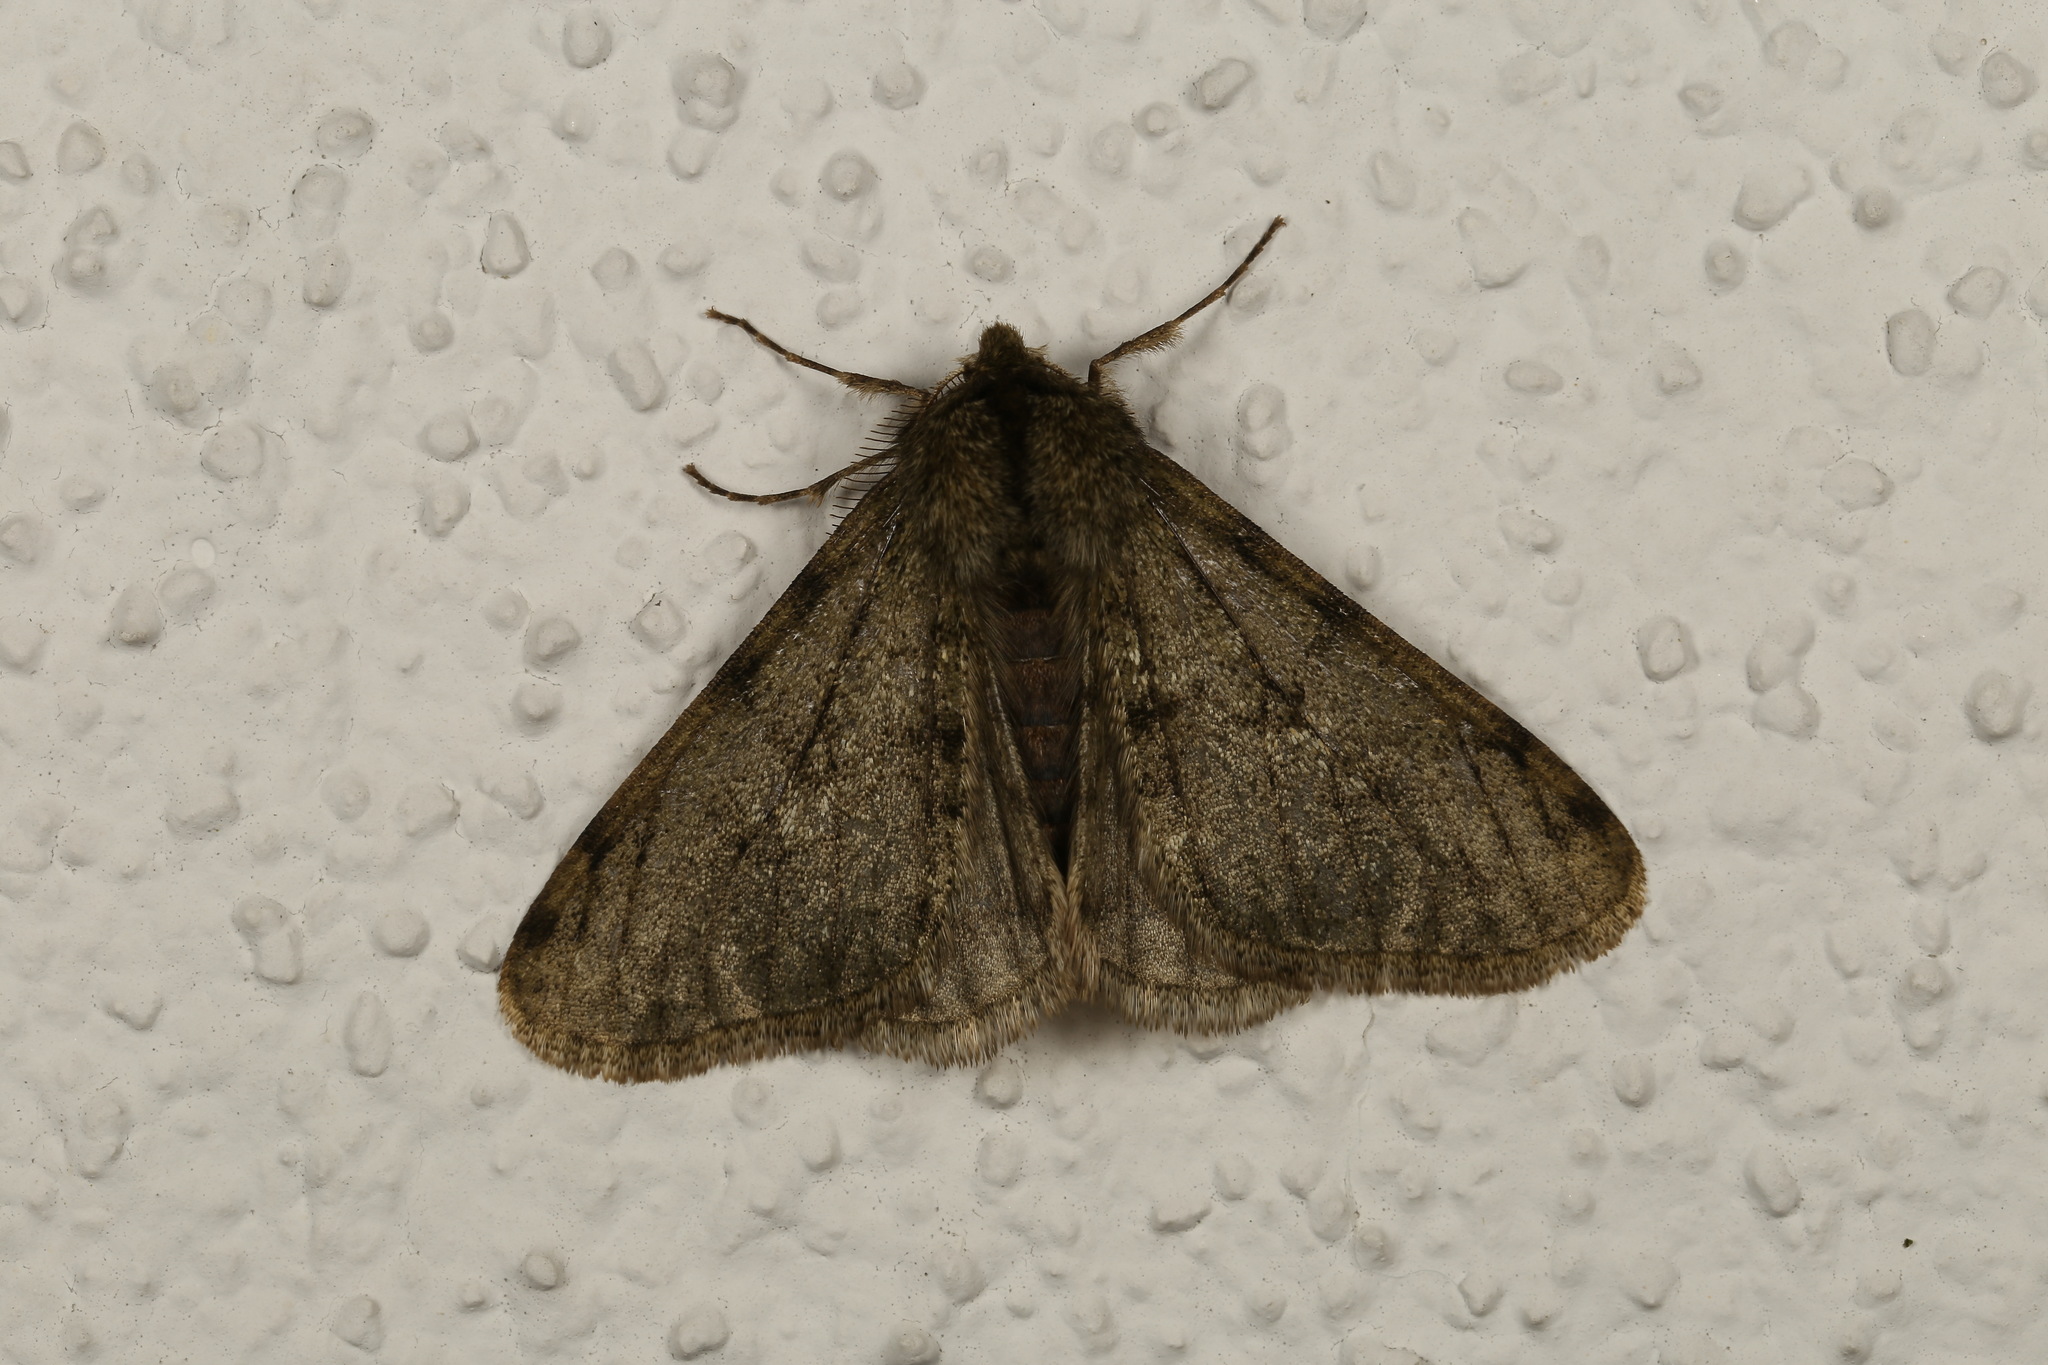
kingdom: Animalia
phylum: Arthropoda
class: Insecta
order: Lepidoptera
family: Geometridae
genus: Phigalia
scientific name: Phigalia pilosaria
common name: Pale brindled beauty
